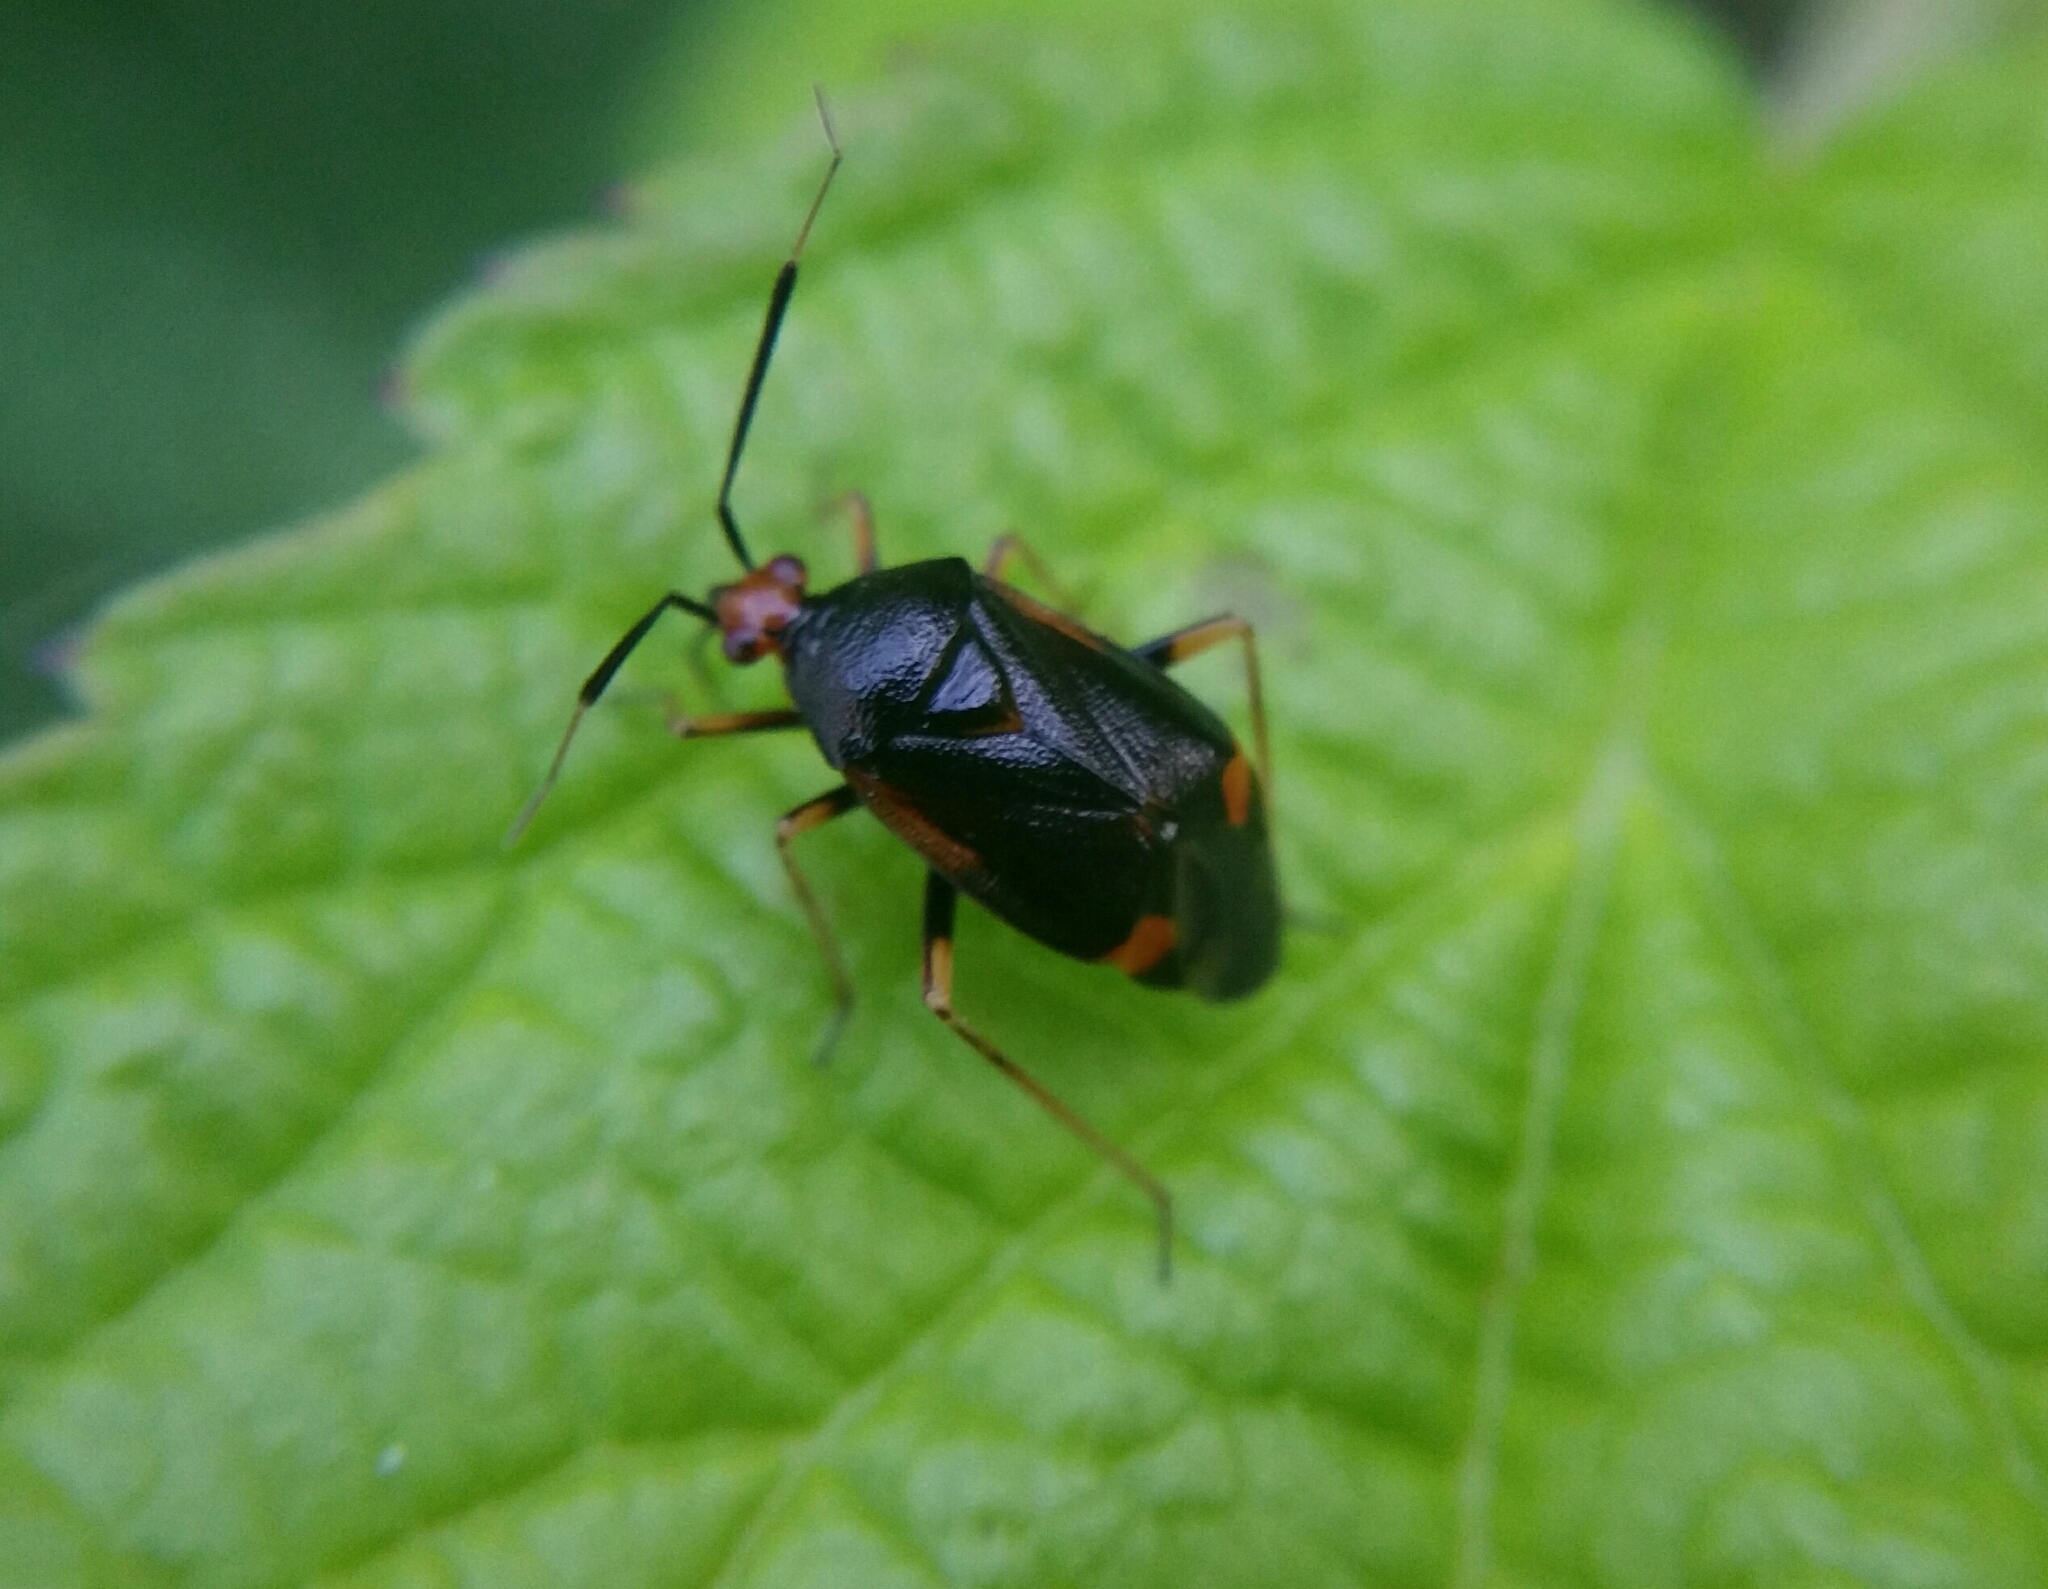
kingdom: Animalia
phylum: Arthropoda
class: Insecta
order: Hemiptera
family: Miridae
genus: Deraeocoris
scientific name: Deraeocoris ruber
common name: Plant bug
